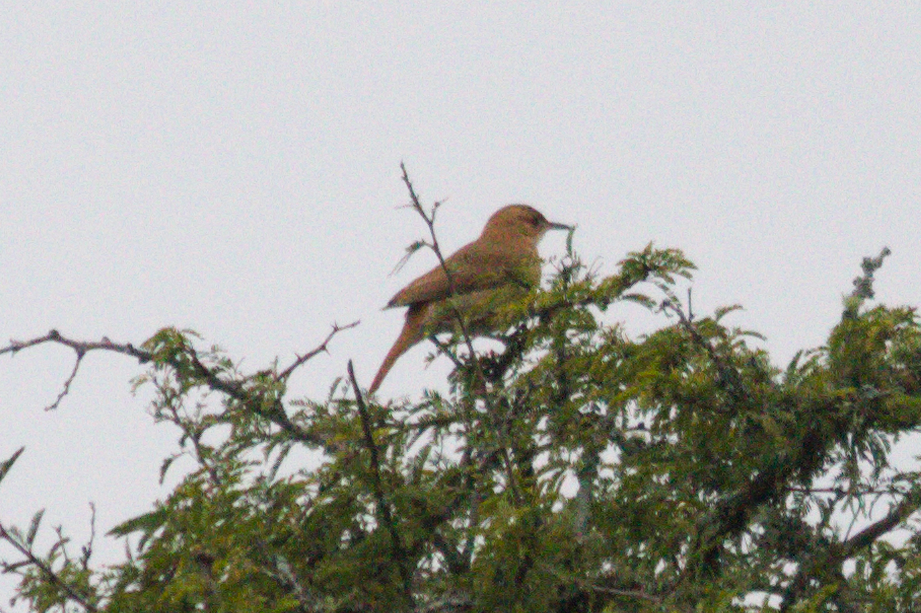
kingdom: Animalia
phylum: Chordata
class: Aves
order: Passeriformes
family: Furnariidae
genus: Furnarius
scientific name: Furnarius rufus
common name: Rufous hornero
